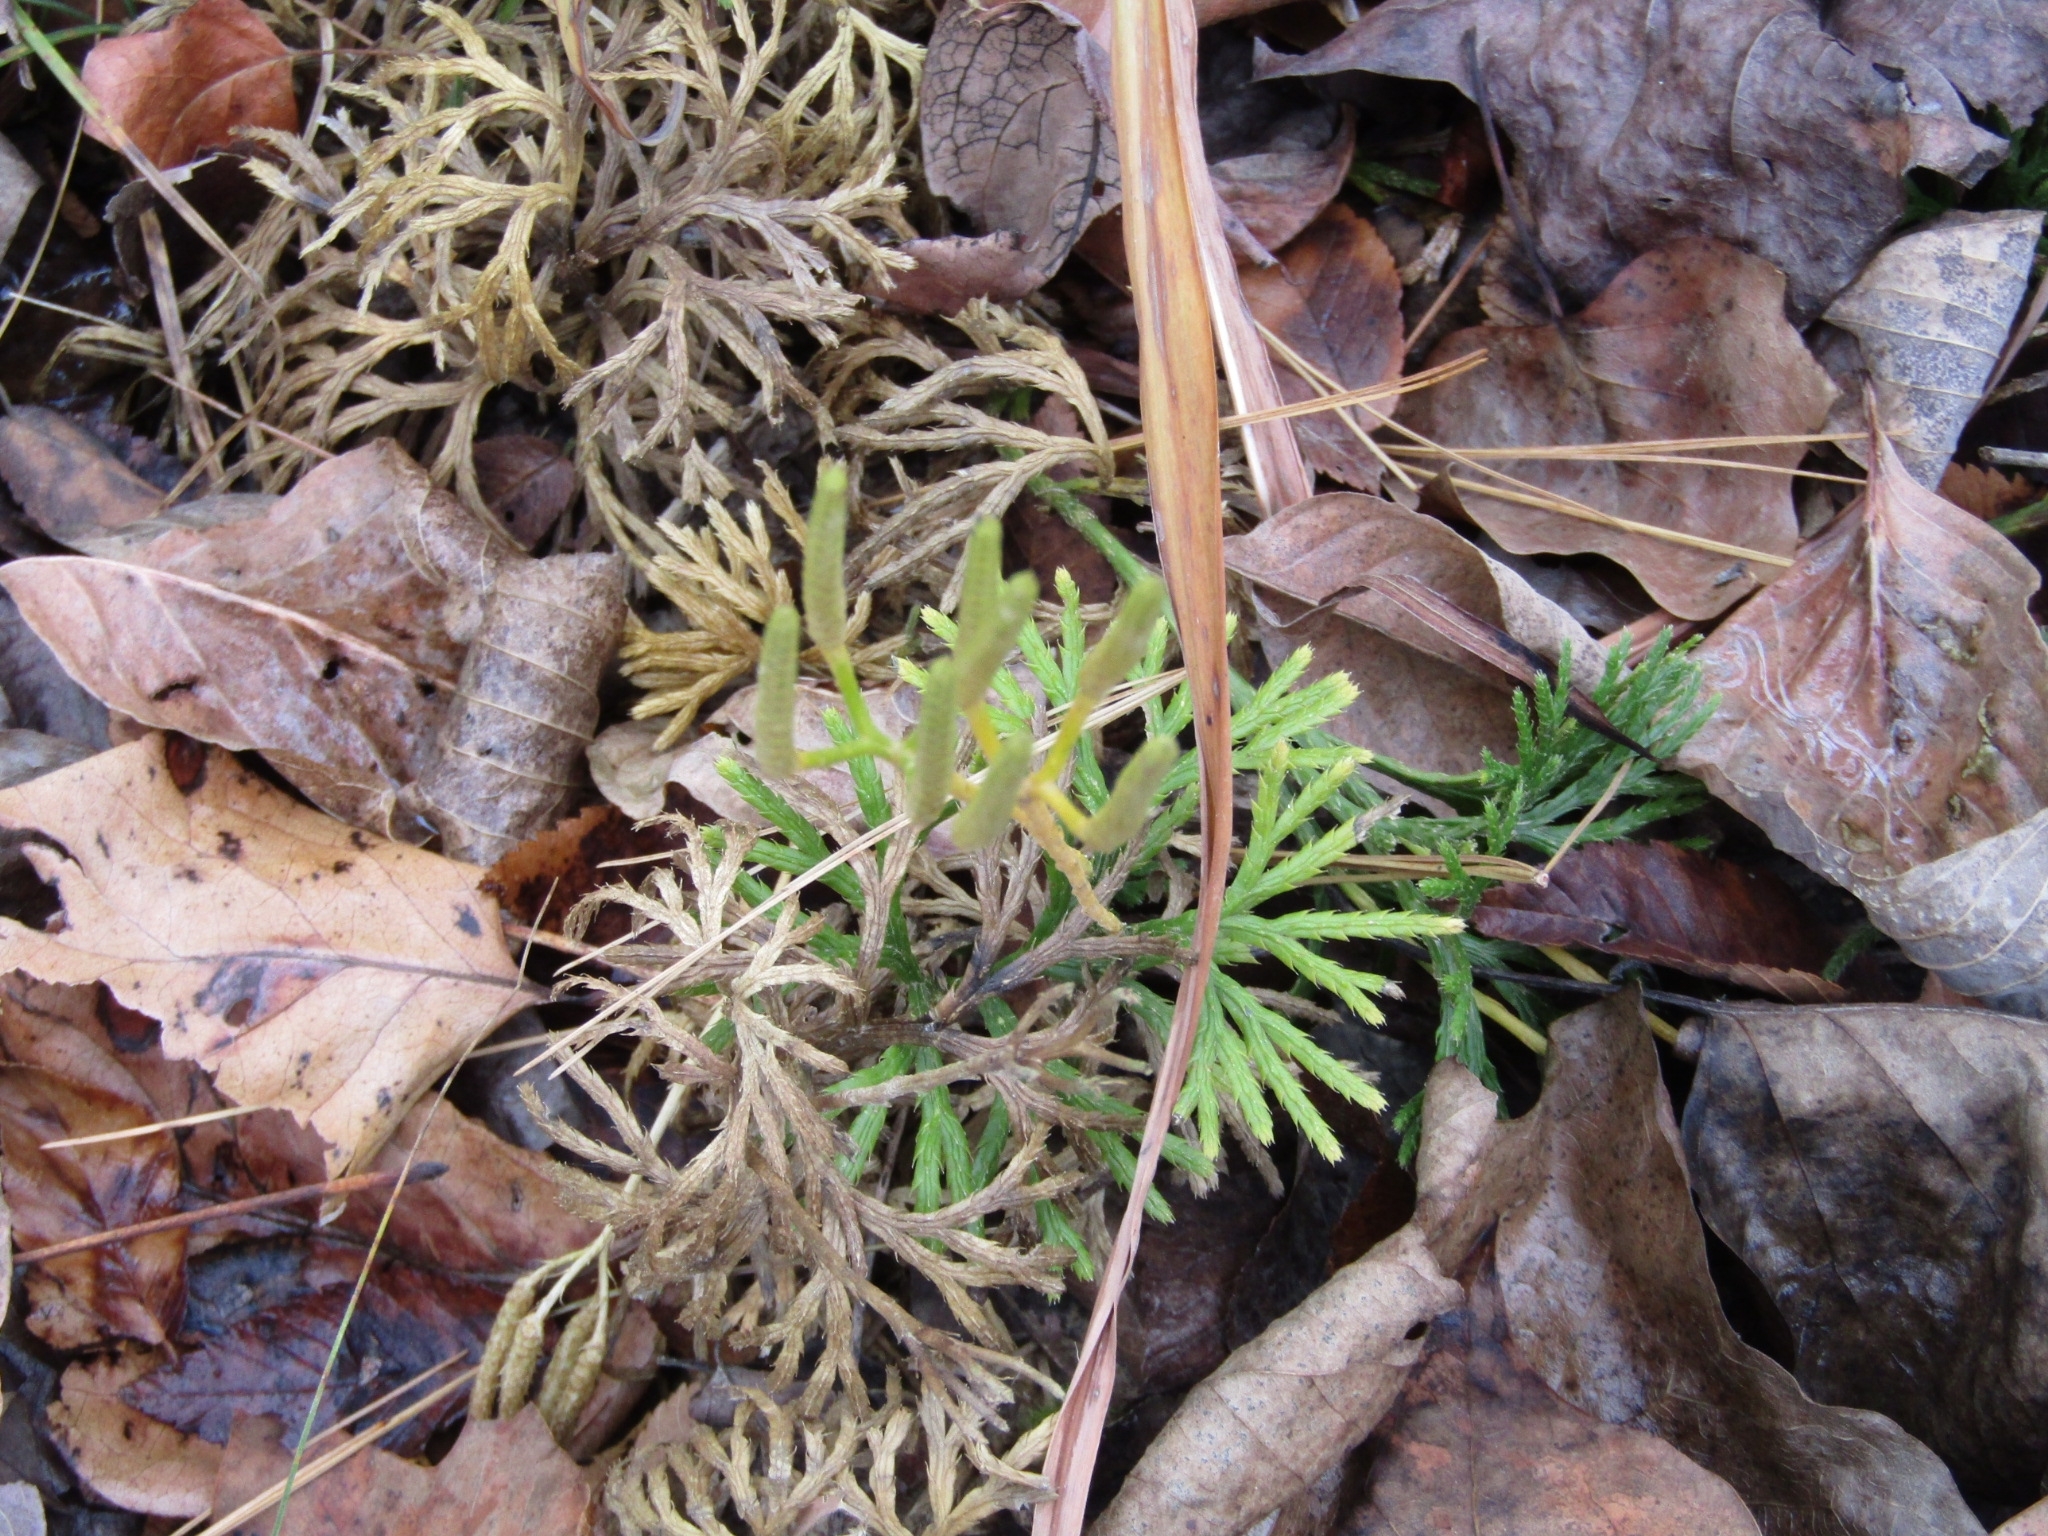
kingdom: Plantae
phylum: Tracheophyta
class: Lycopodiopsida
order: Lycopodiales
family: Lycopodiaceae
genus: Diphasiastrum
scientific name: Diphasiastrum digitatum
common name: Southern running-pine
